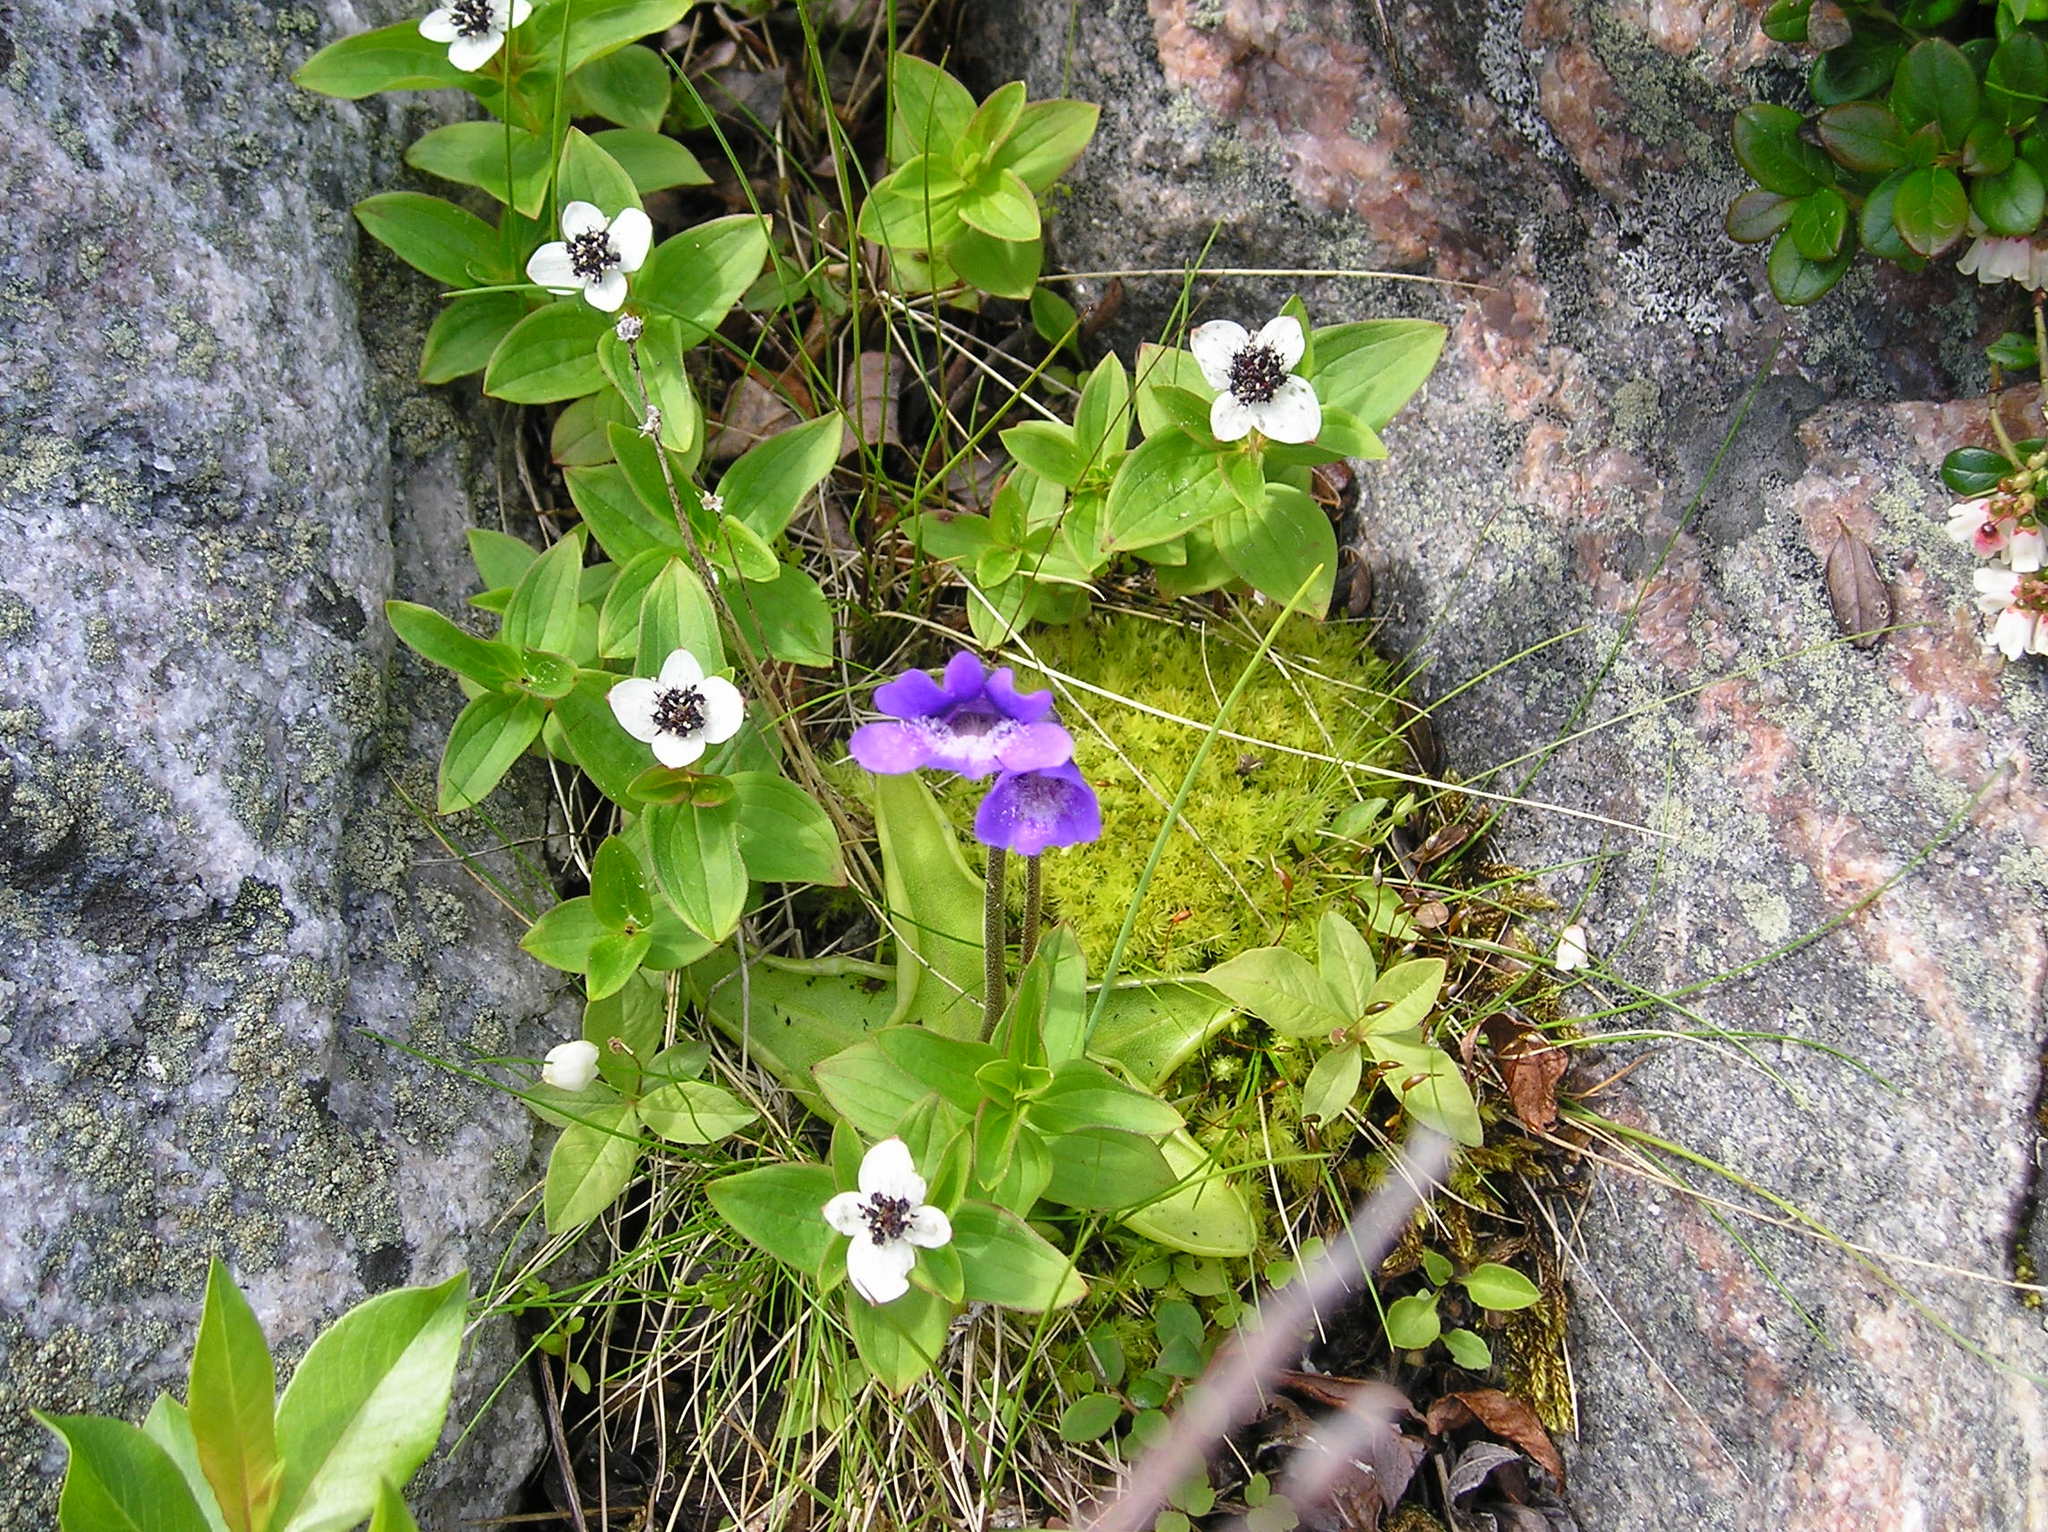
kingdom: Plantae
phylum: Tracheophyta
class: Magnoliopsida
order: Lamiales
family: Lentibulariaceae
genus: Pinguicula
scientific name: Pinguicula vulgaris
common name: Common butterwort
